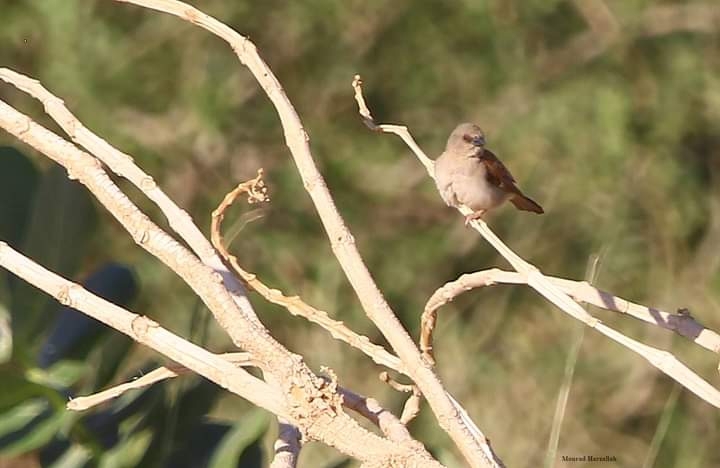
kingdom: Animalia
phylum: Chordata
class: Aves
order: Passeriformes
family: Passeridae
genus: Passer
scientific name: Passer griseus
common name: Northern grey-headed sparrow
